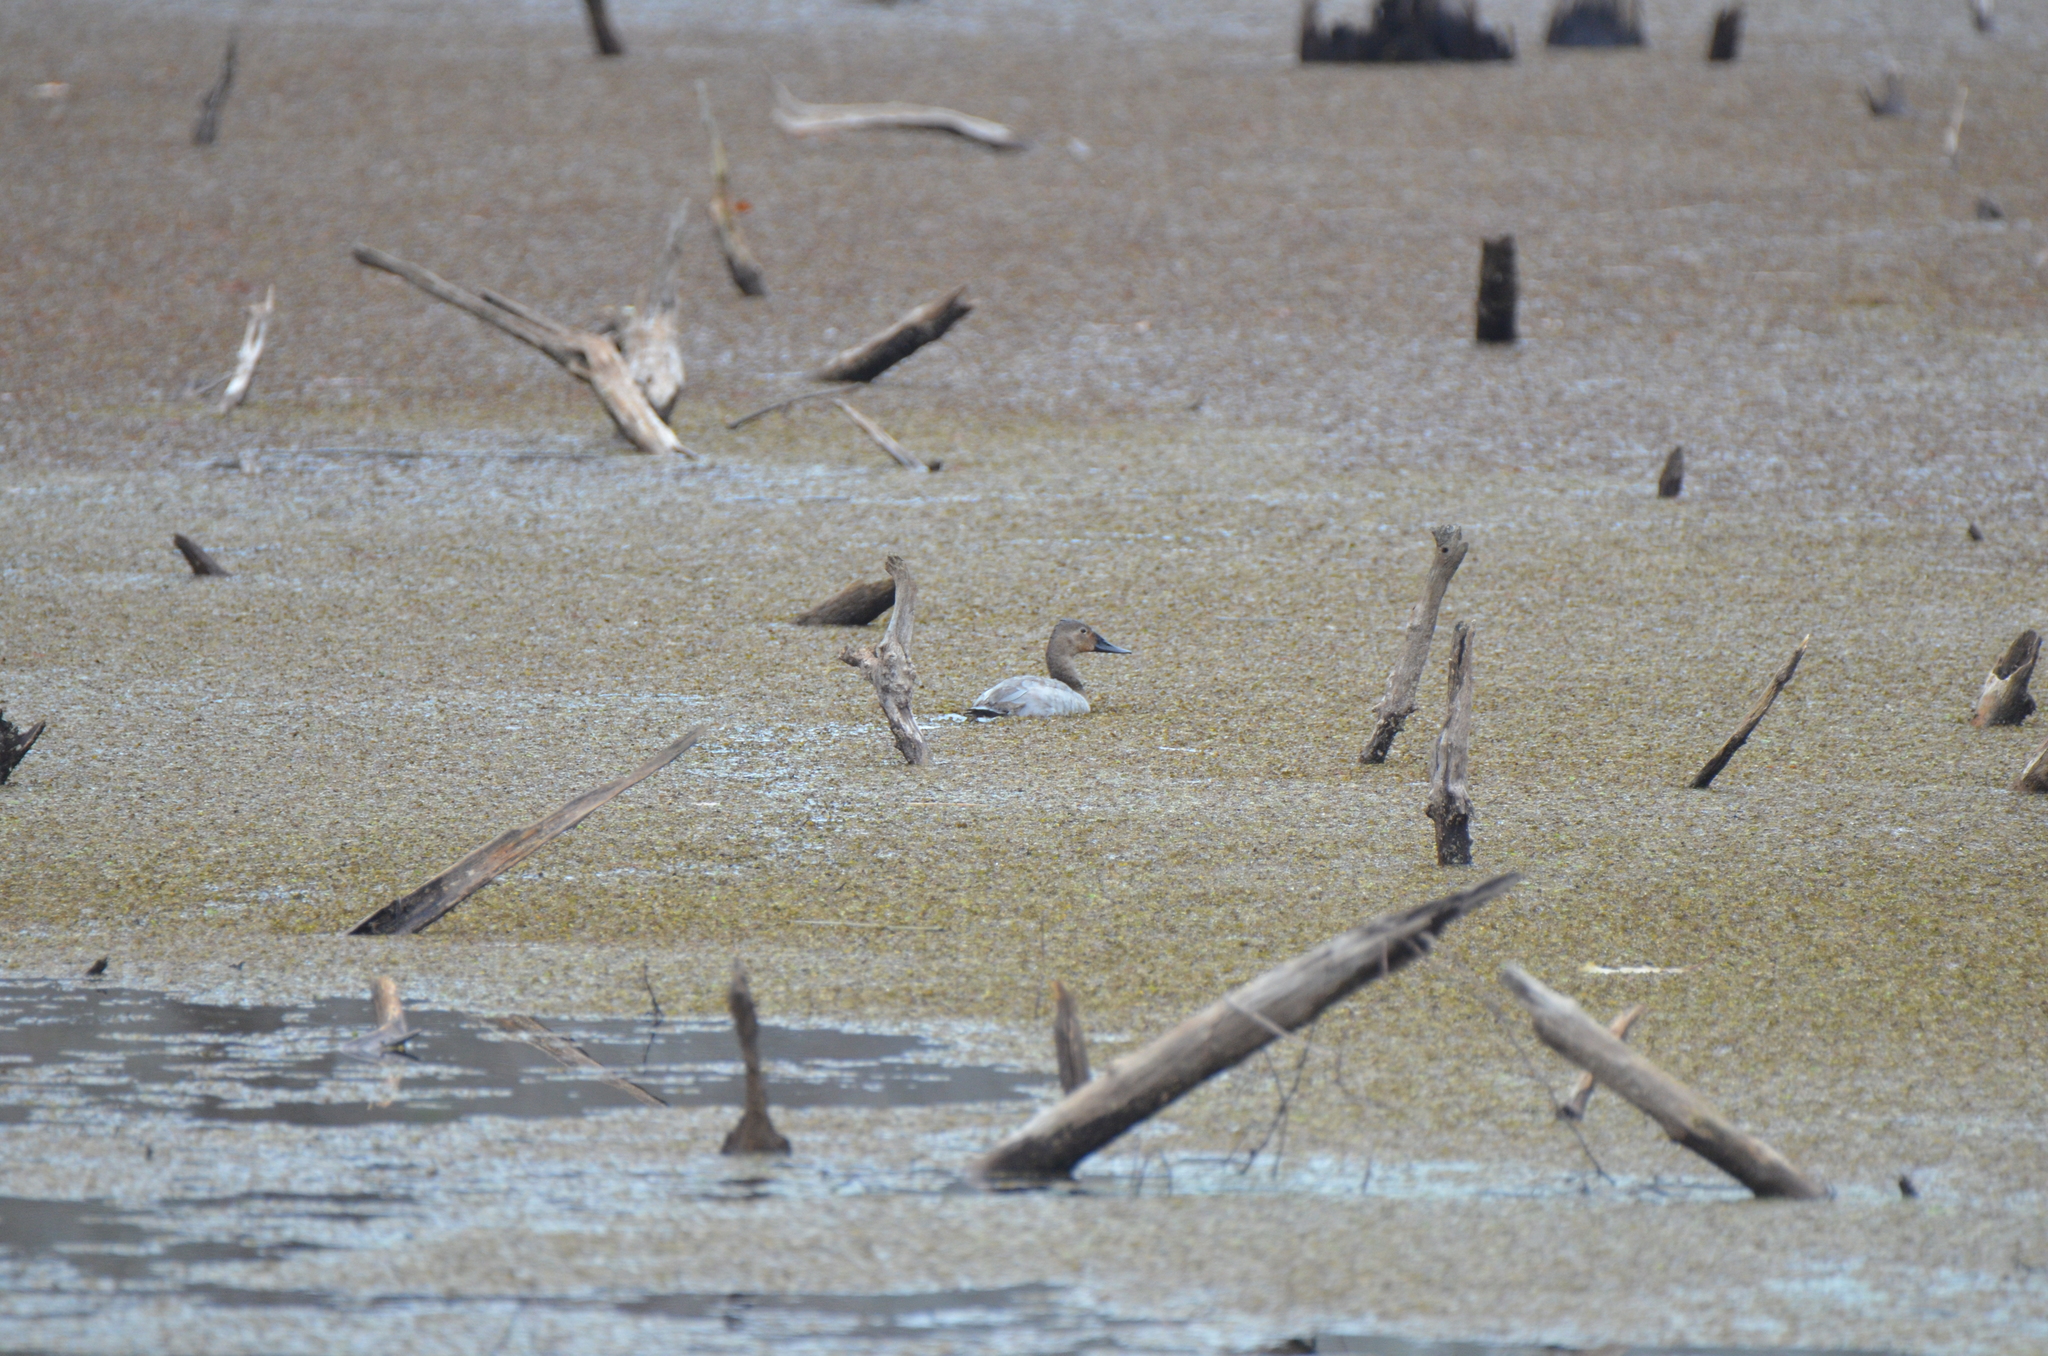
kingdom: Animalia
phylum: Chordata
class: Aves
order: Anseriformes
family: Anatidae
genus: Aythya
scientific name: Aythya valisineria
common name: Canvasback
